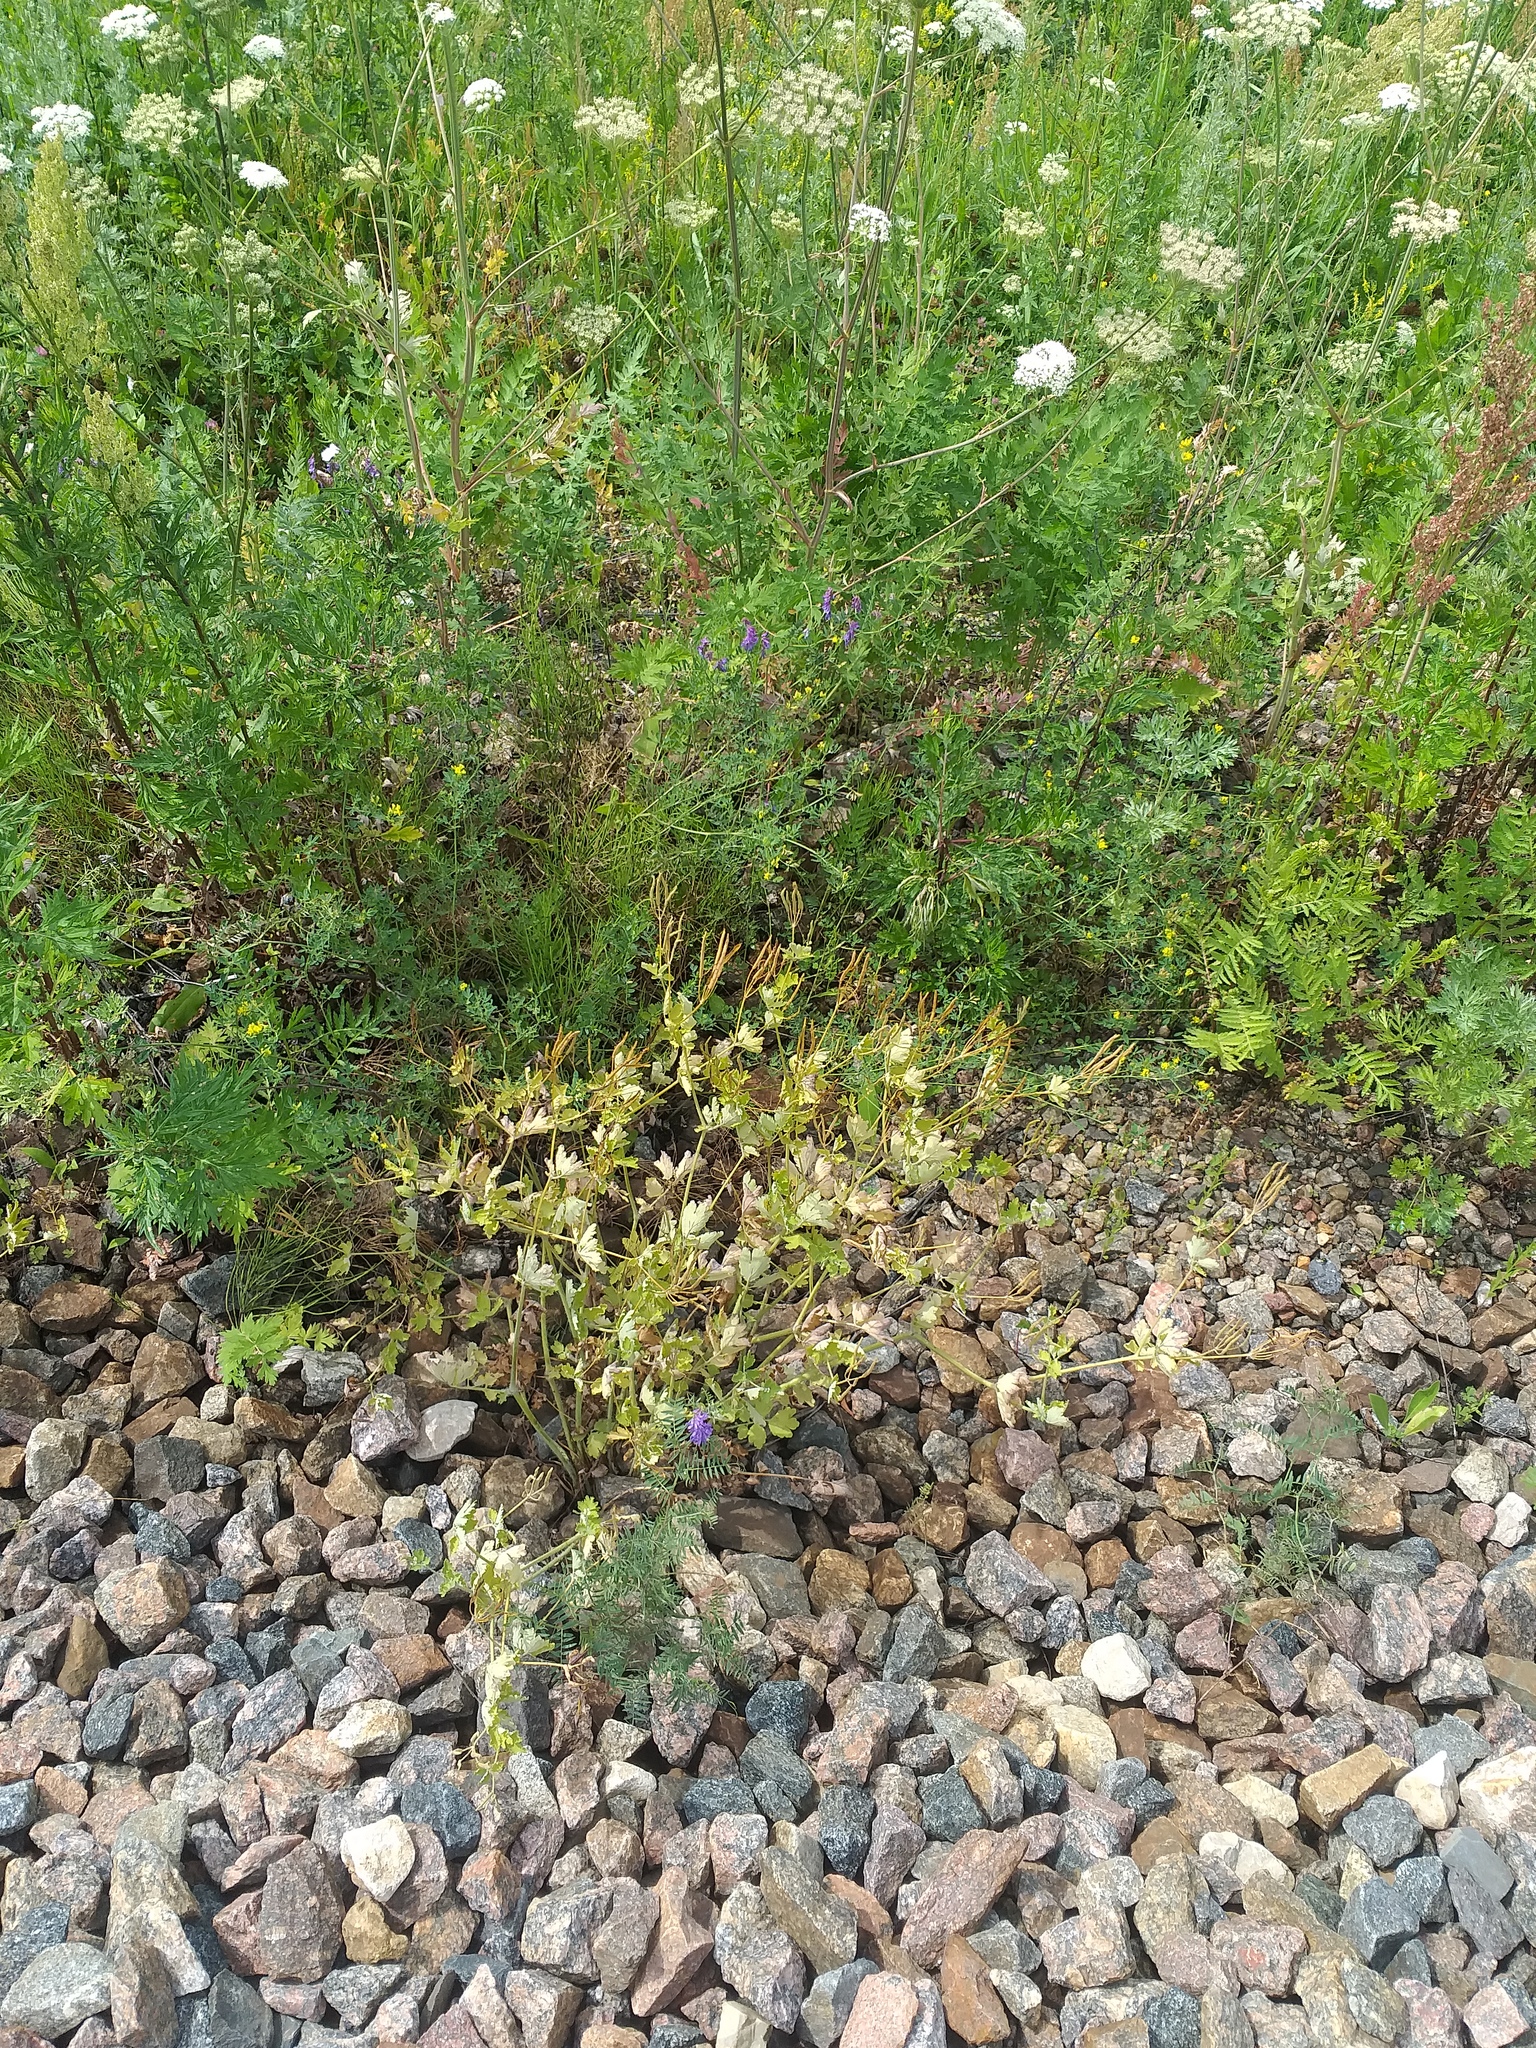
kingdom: Plantae
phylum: Tracheophyta
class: Magnoliopsida
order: Ranunculales
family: Papaveraceae
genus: Chelidonium
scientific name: Chelidonium majus
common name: Greater celandine
